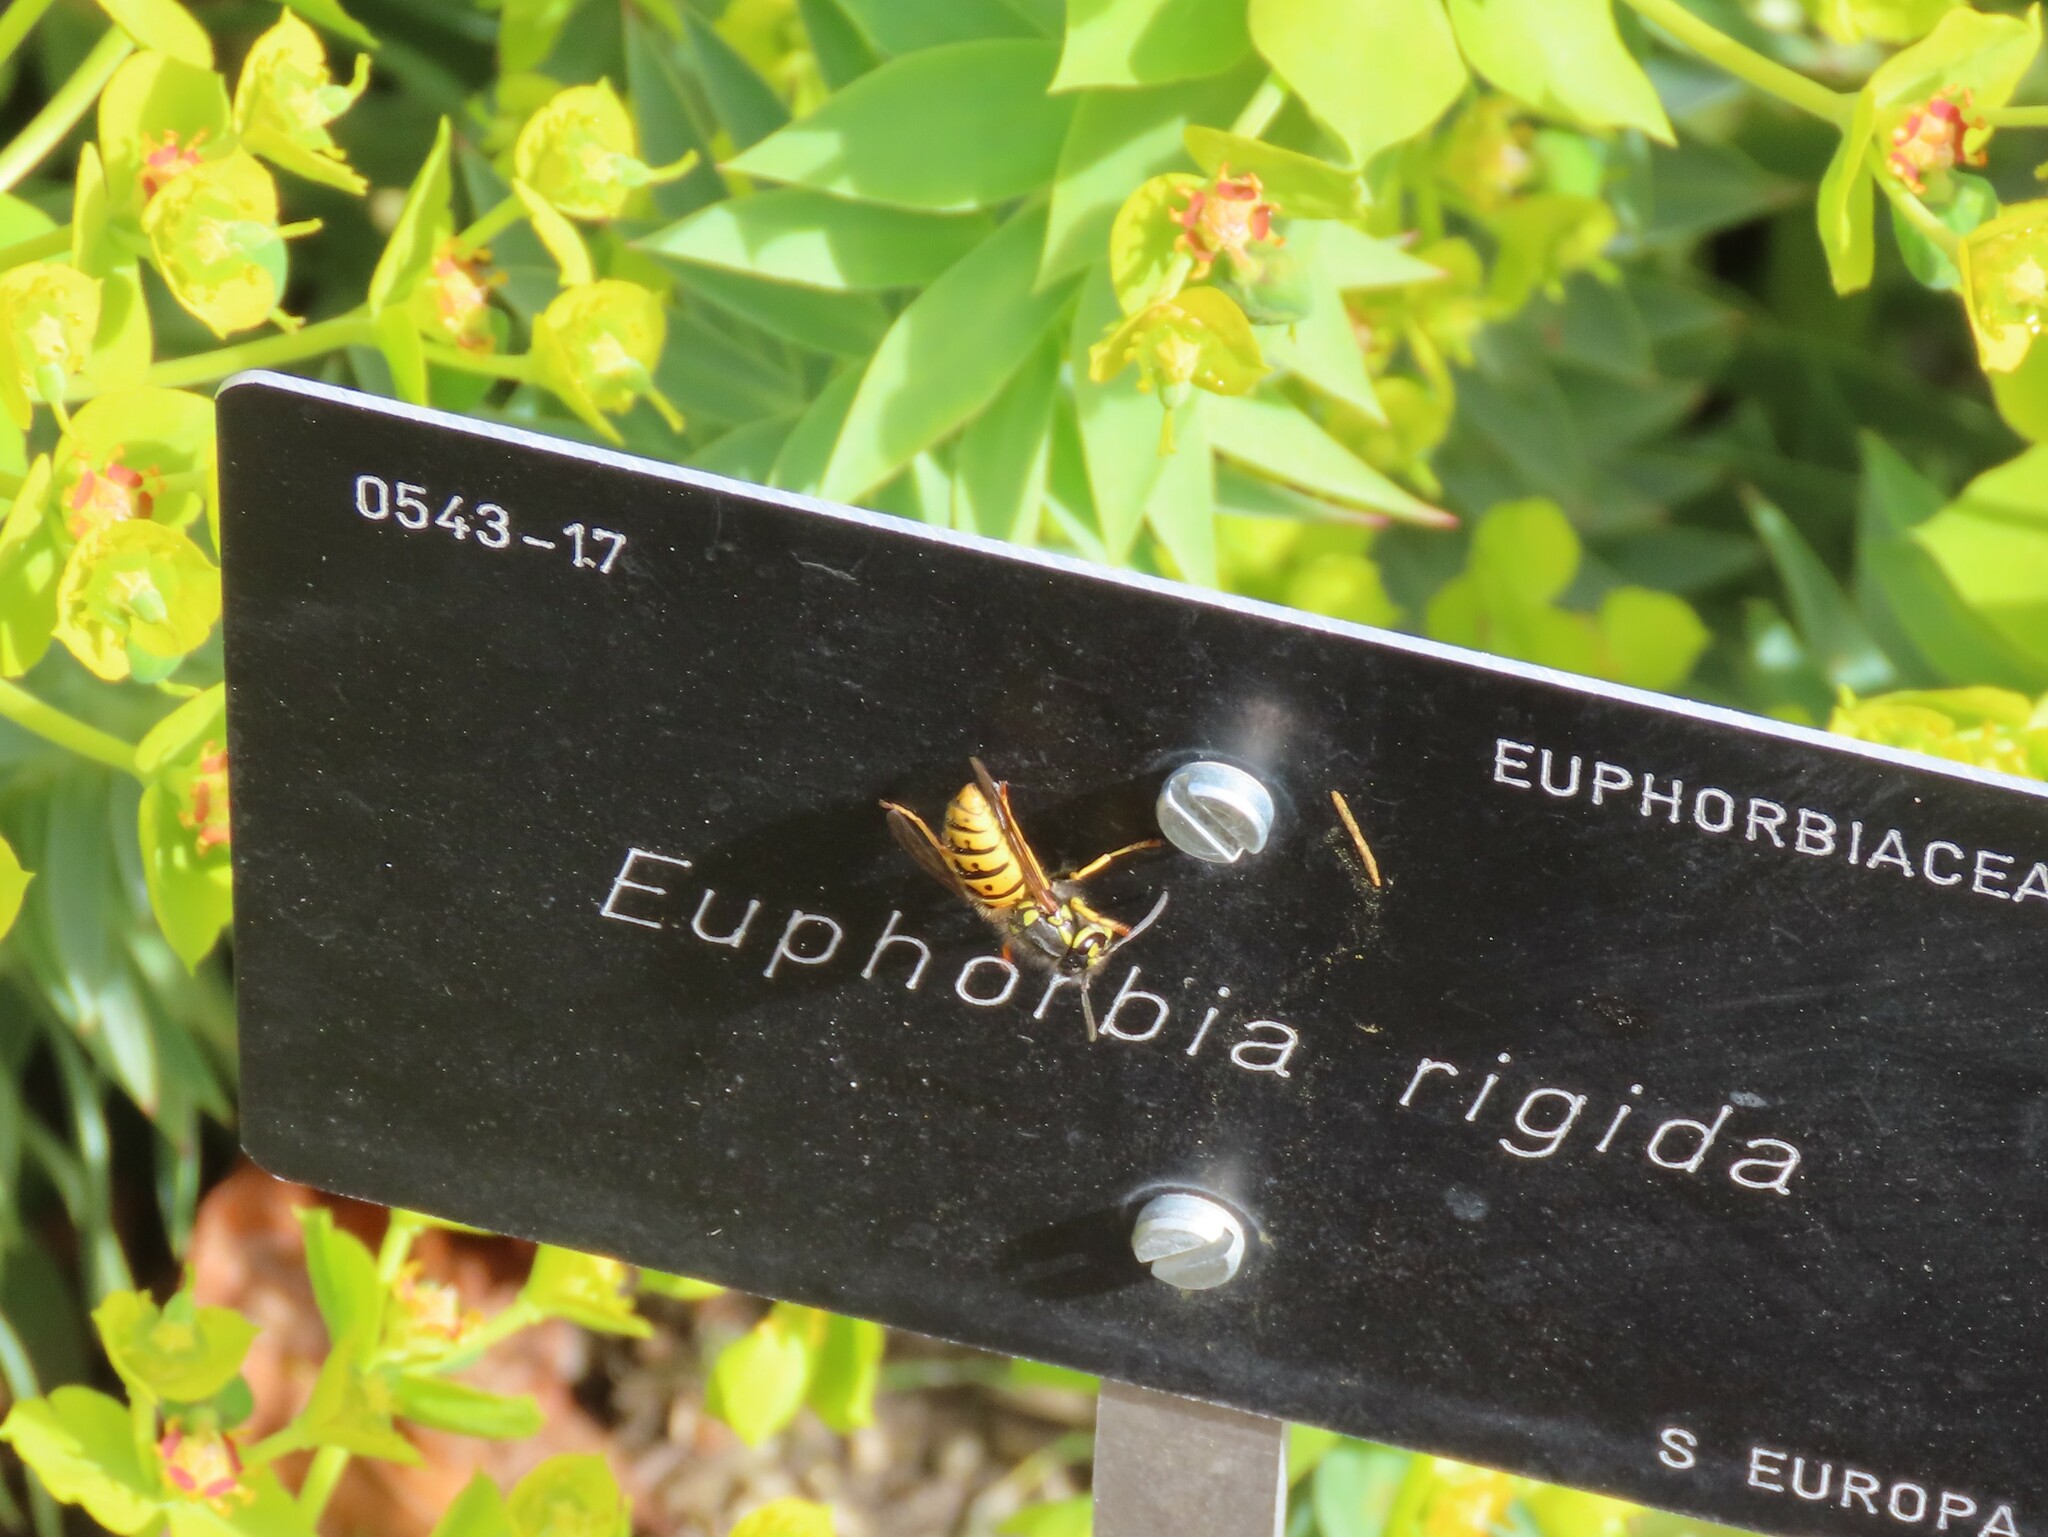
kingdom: Animalia
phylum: Arthropoda
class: Insecta
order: Hymenoptera
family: Vespidae
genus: Vespula
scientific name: Vespula germanica
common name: German wasp
